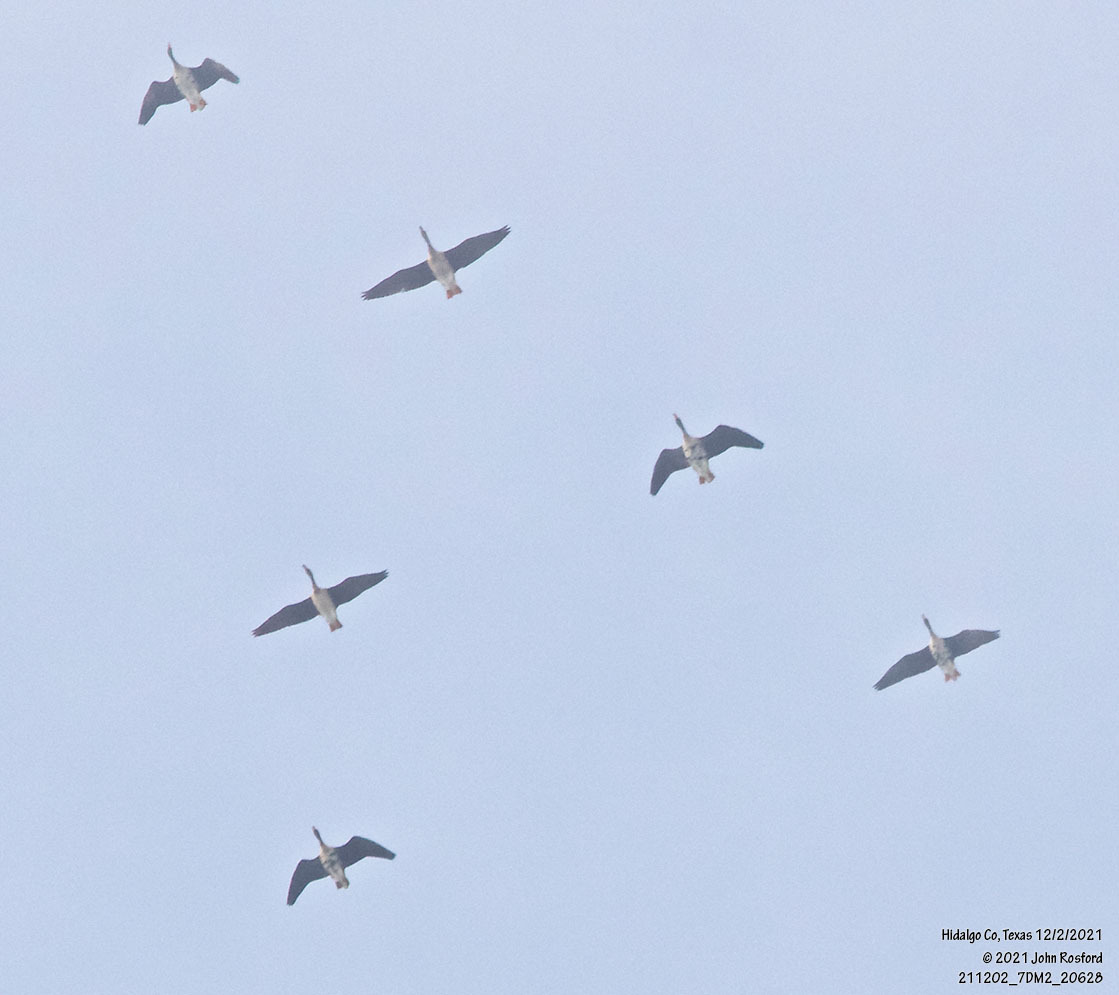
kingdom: Animalia
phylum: Chordata
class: Aves
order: Anseriformes
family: Anatidae
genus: Anser
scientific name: Anser albifrons
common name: Greater white-fronted goose
